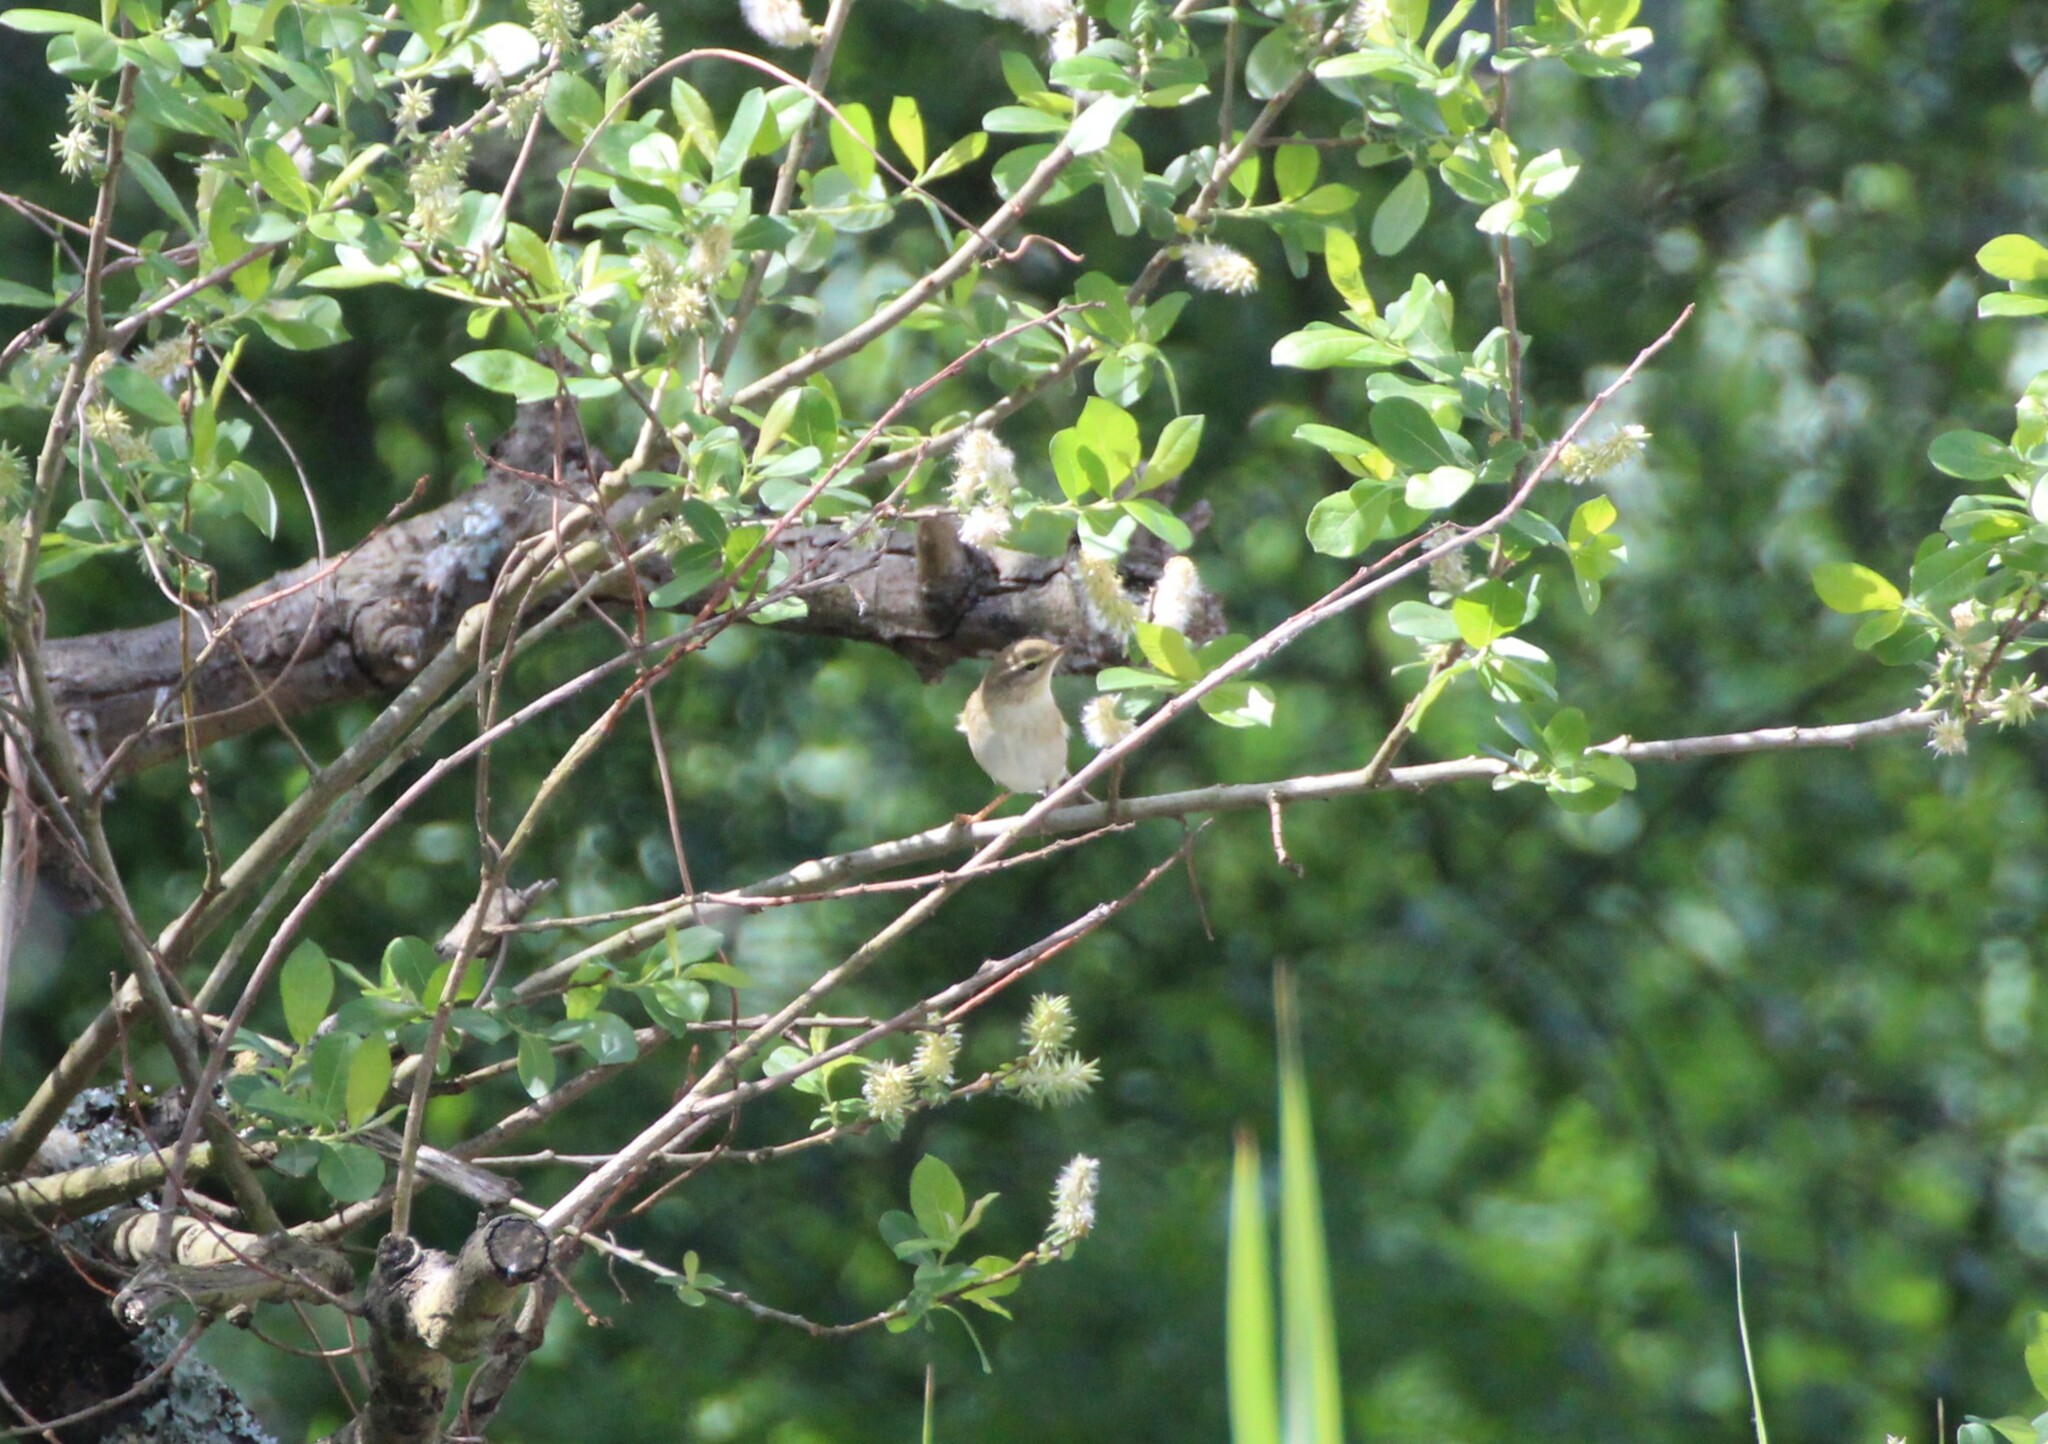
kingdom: Animalia
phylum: Chordata
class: Aves
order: Passeriformes
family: Phylloscopidae
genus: Phylloscopus
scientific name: Phylloscopus trochilus
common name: Willow warbler
